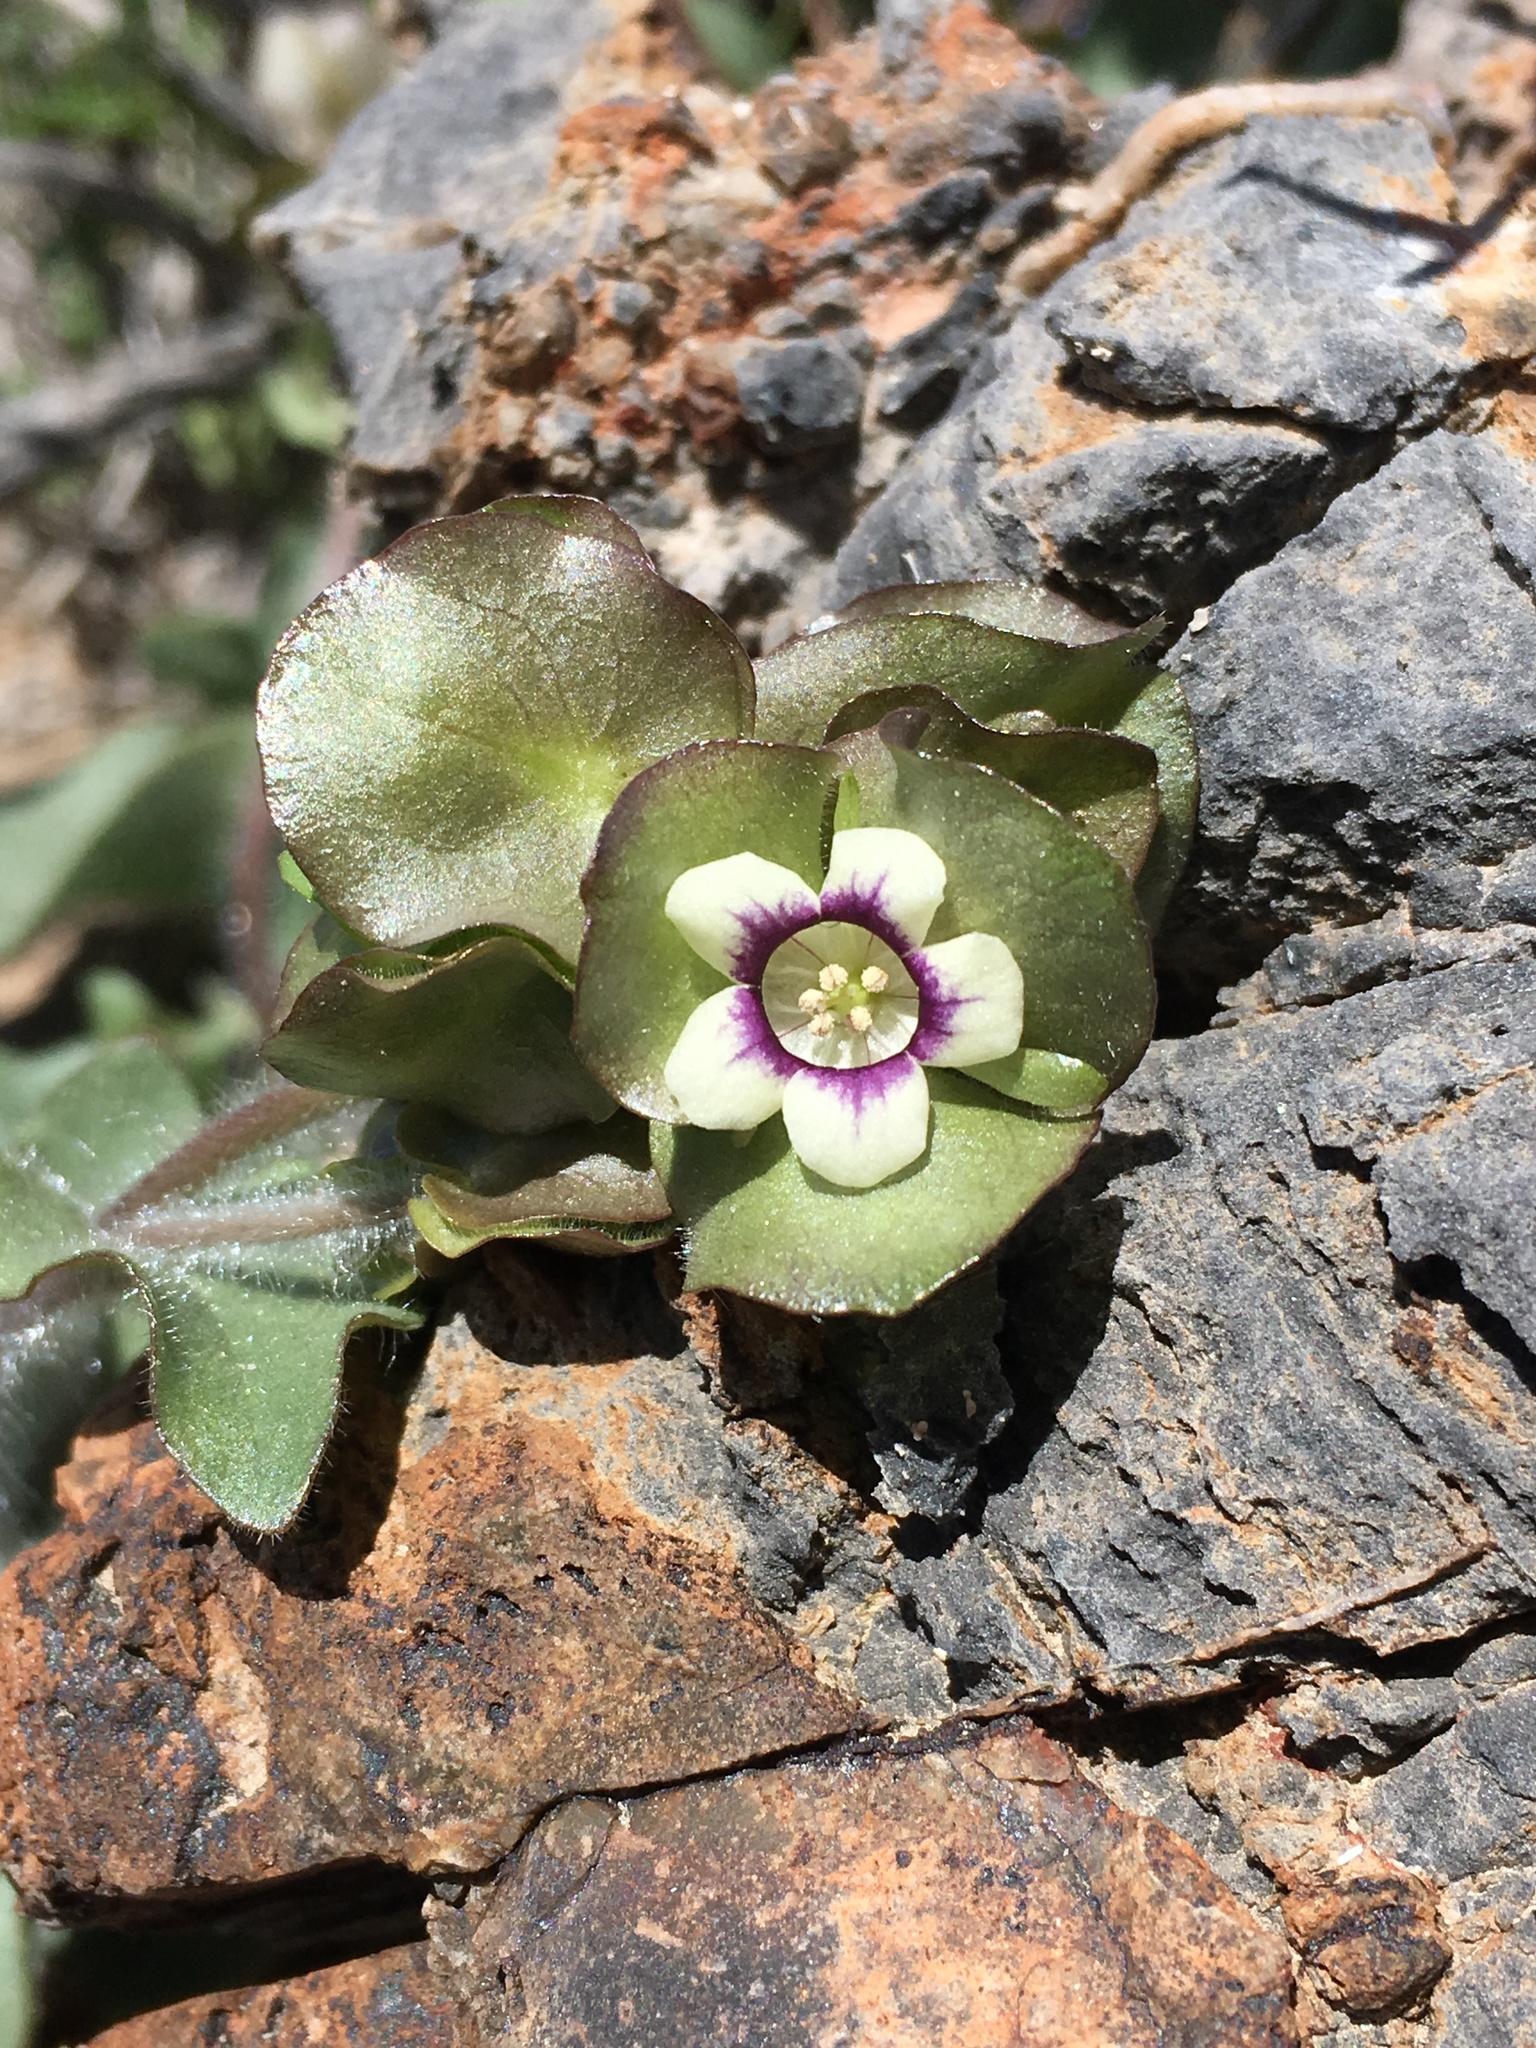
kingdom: Plantae
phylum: Tracheophyta
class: Magnoliopsida
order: Boraginales
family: Hydrophyllaceae
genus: Tricardia
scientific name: Tricardia watsonii
